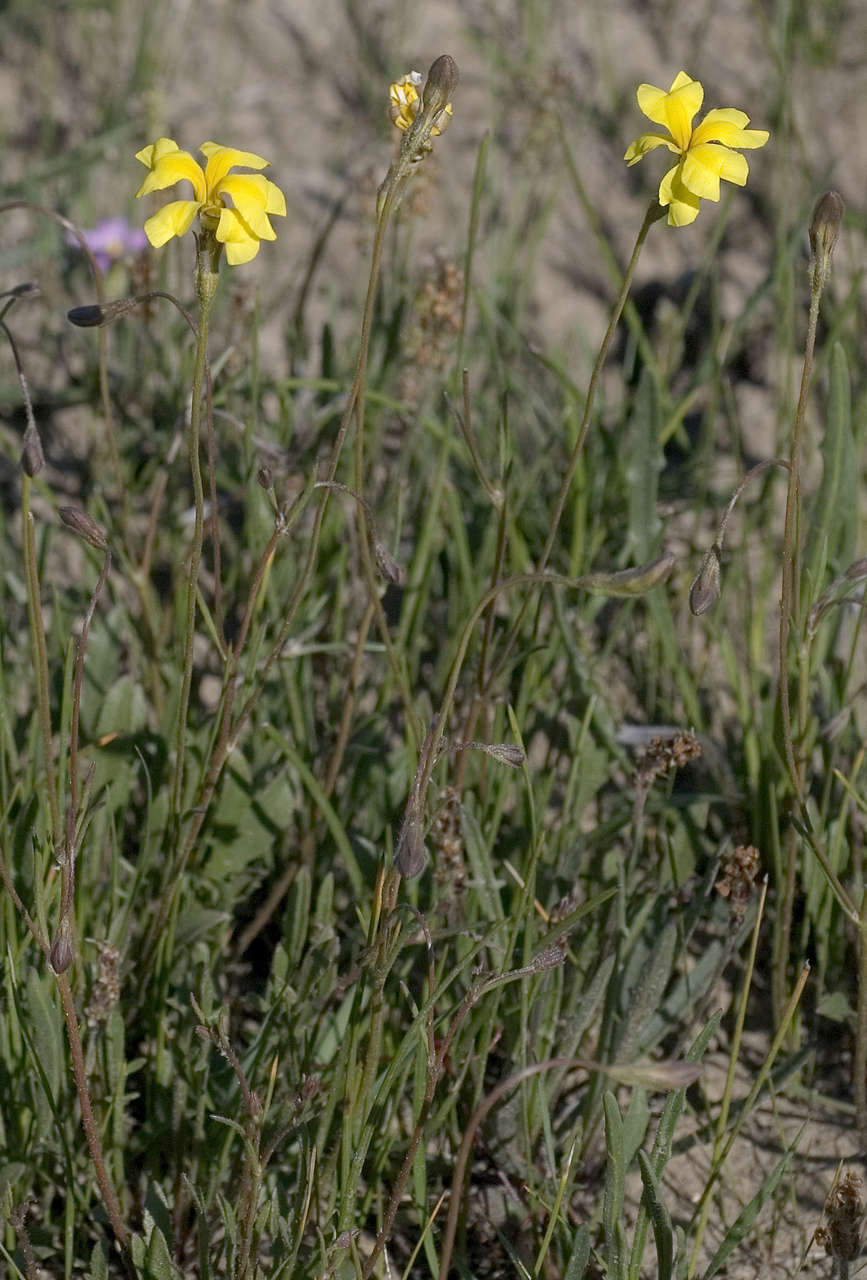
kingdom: Plantae
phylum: Tracheophyta
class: Magnoliopsida
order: Asterales
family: Goodeniaceae
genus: Goodenia
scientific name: Goodenia pinnatifida
